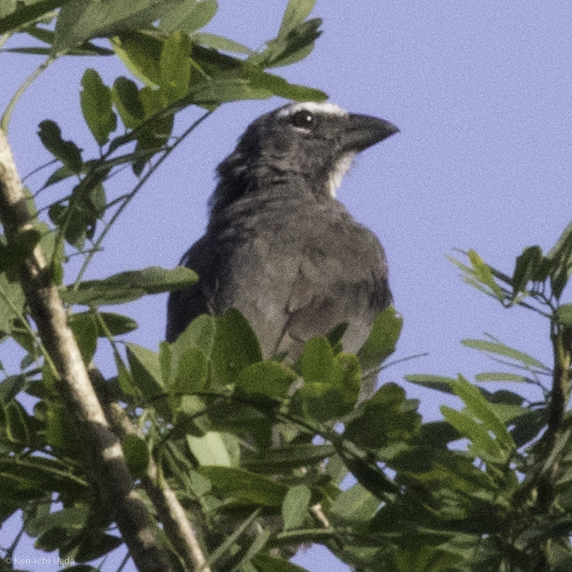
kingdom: Animalia
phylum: Chordata
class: Aves
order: Passeriformes
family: Thraupidae
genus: Saltator
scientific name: Saltator grandis
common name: Cinnamon-bellied saltator
